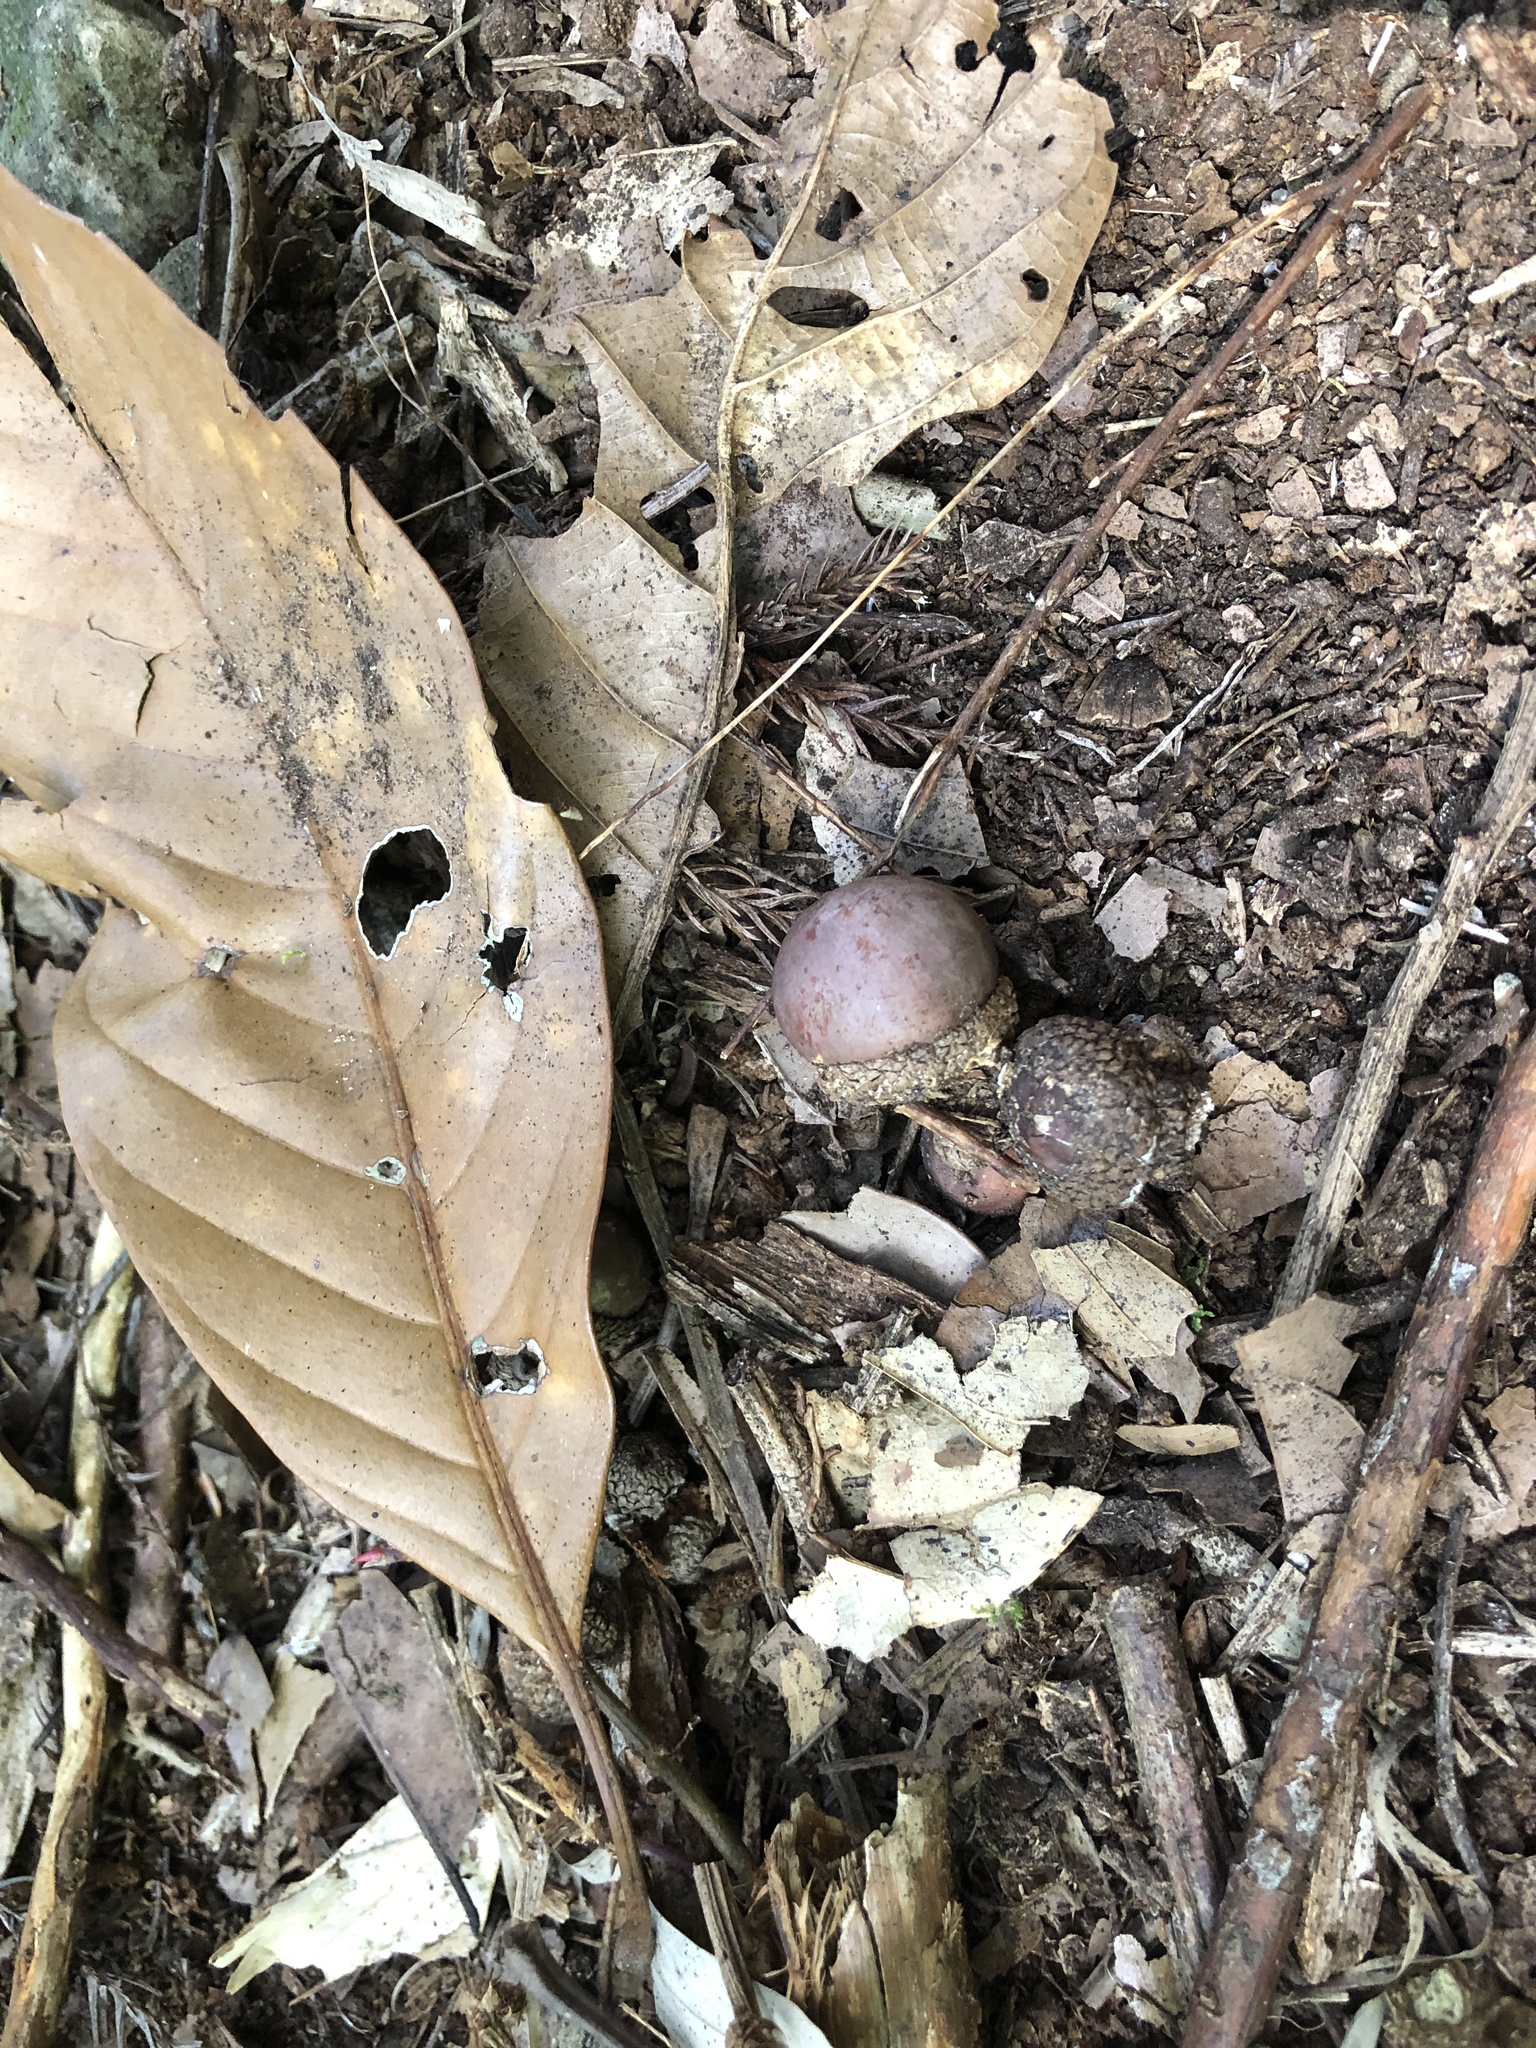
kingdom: Plantae
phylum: Tracheophyta
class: Magnoliopsida
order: Fagales
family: Fagaceae
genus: Lithocarpus
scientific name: Lithocarpus kawakamii
